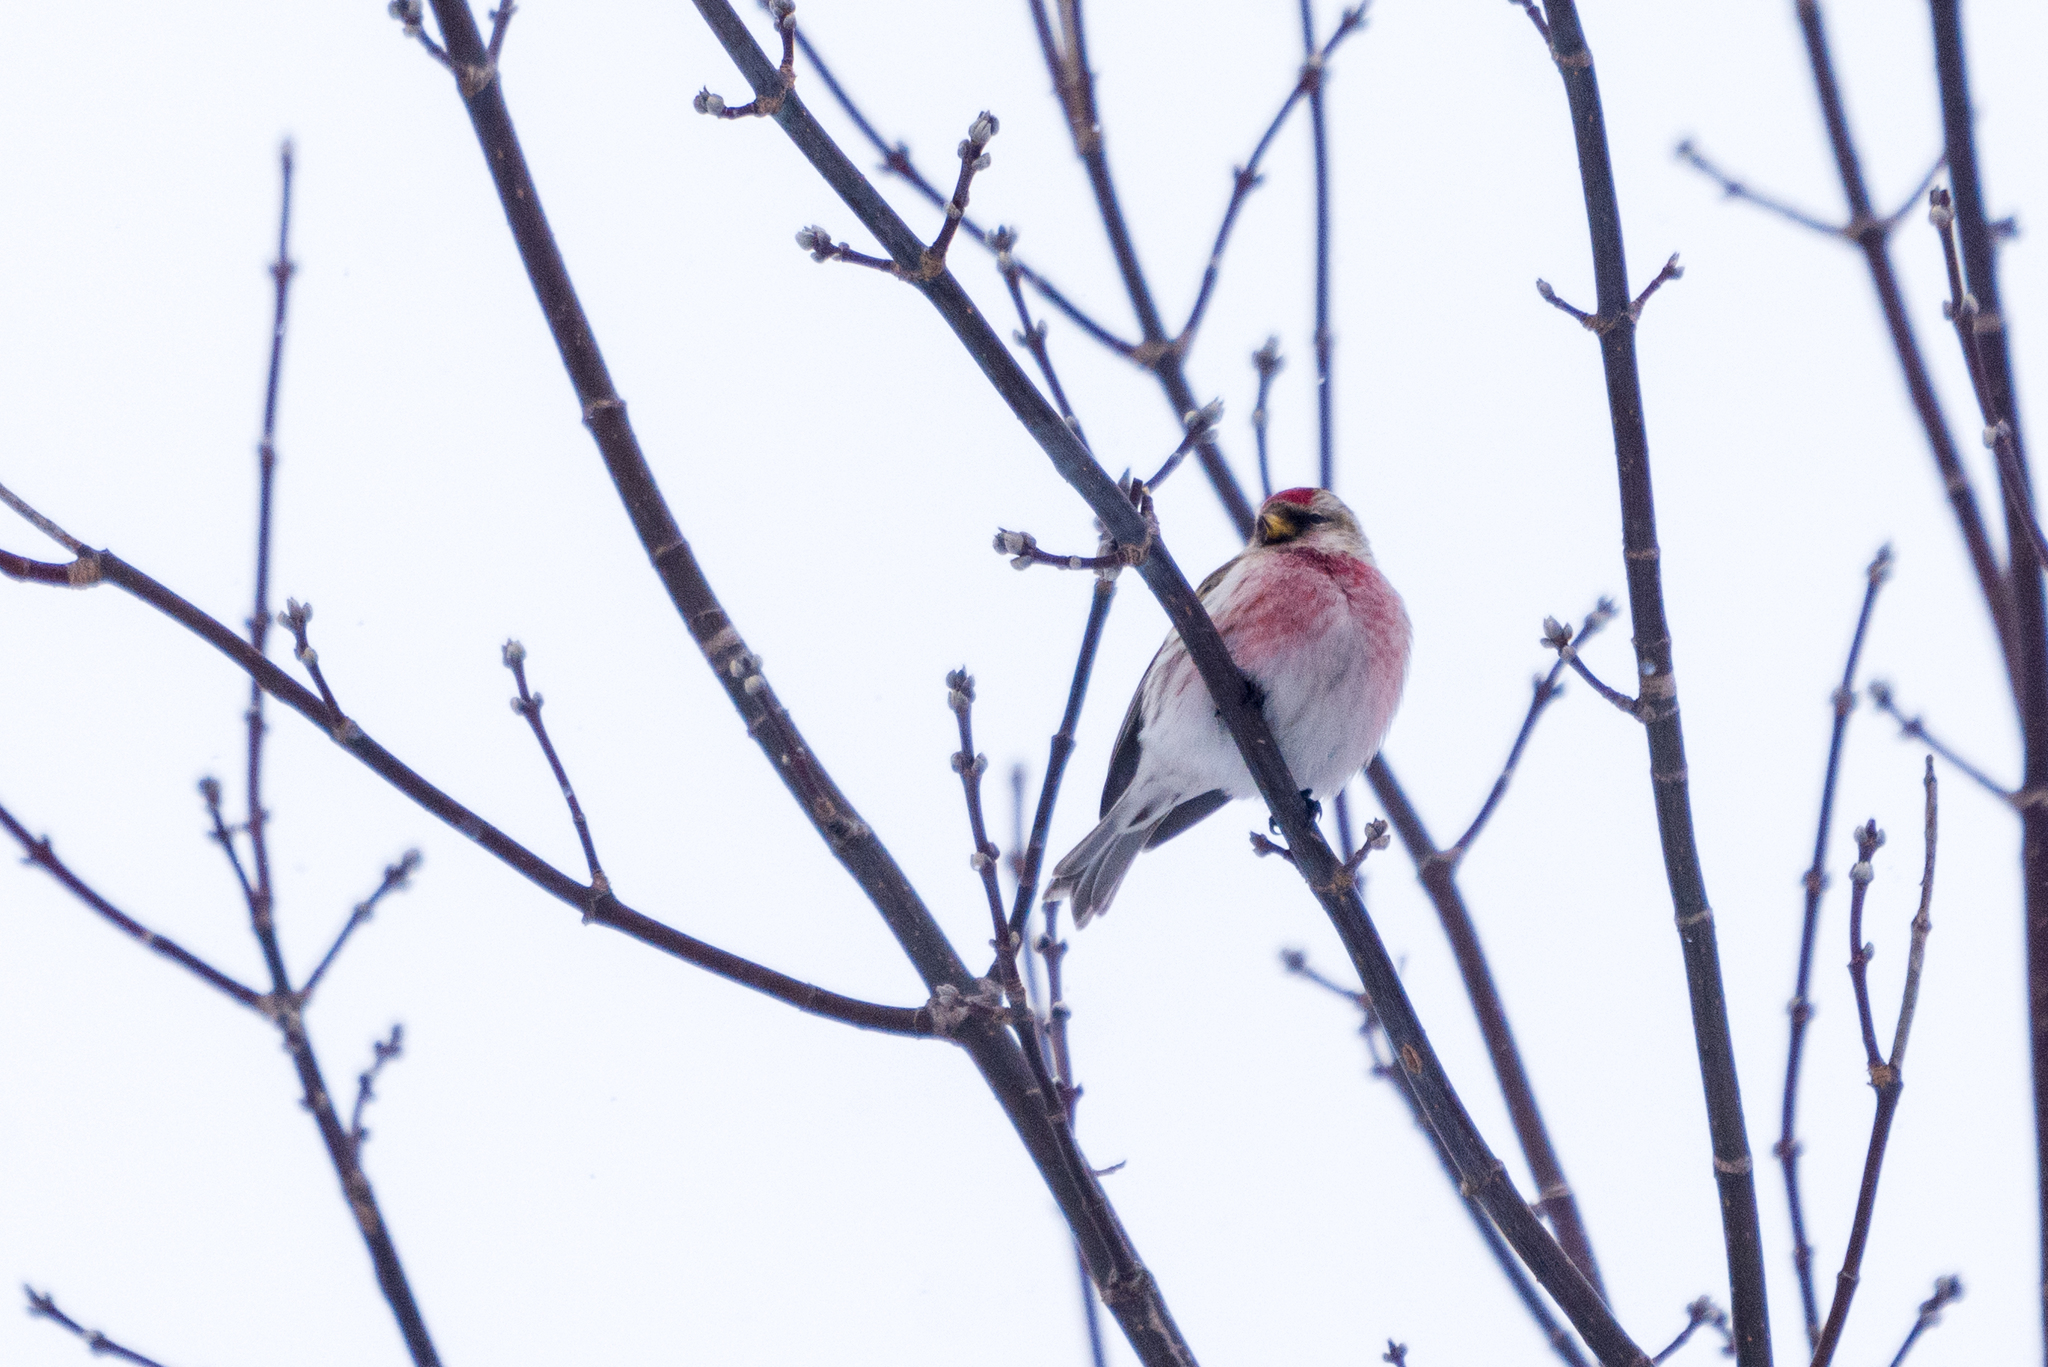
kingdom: Animalia
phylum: Chordata
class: Aves
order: Passeriformes
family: Fringillidae
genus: Acanthis
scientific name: Acanthis flammea
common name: Common redpoll
